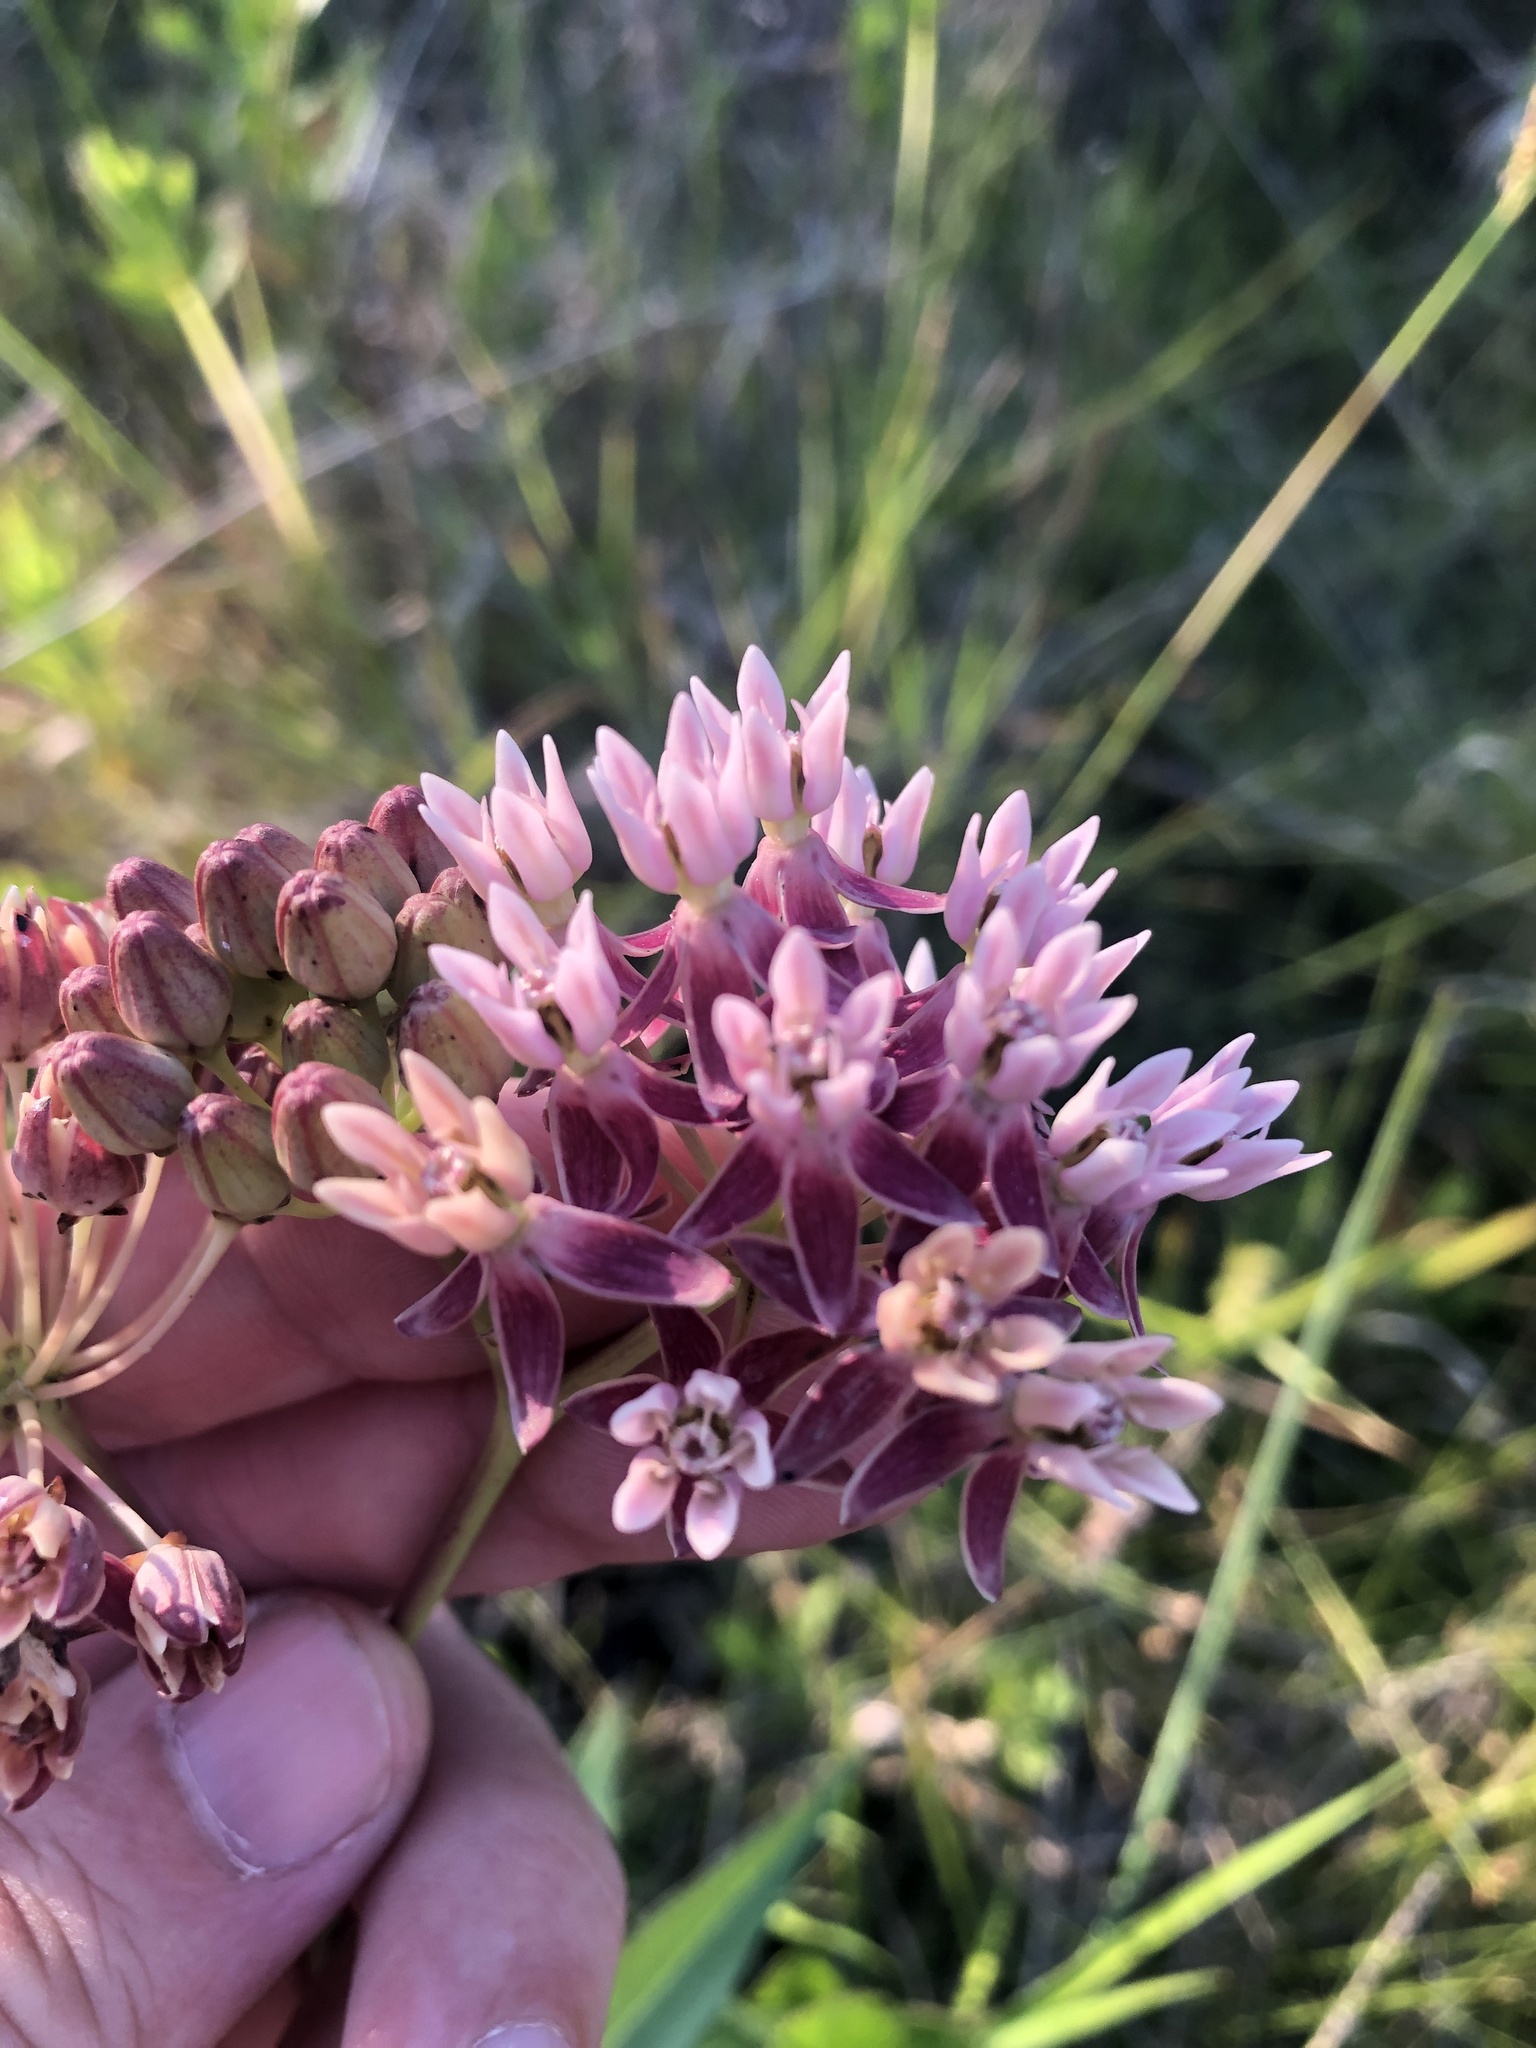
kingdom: Plantae
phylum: Tracheophyta
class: Magnoliopsida
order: Gentianales
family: Apocynaceae
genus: Asclepias
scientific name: Asclepias rubra
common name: Red milkweed
